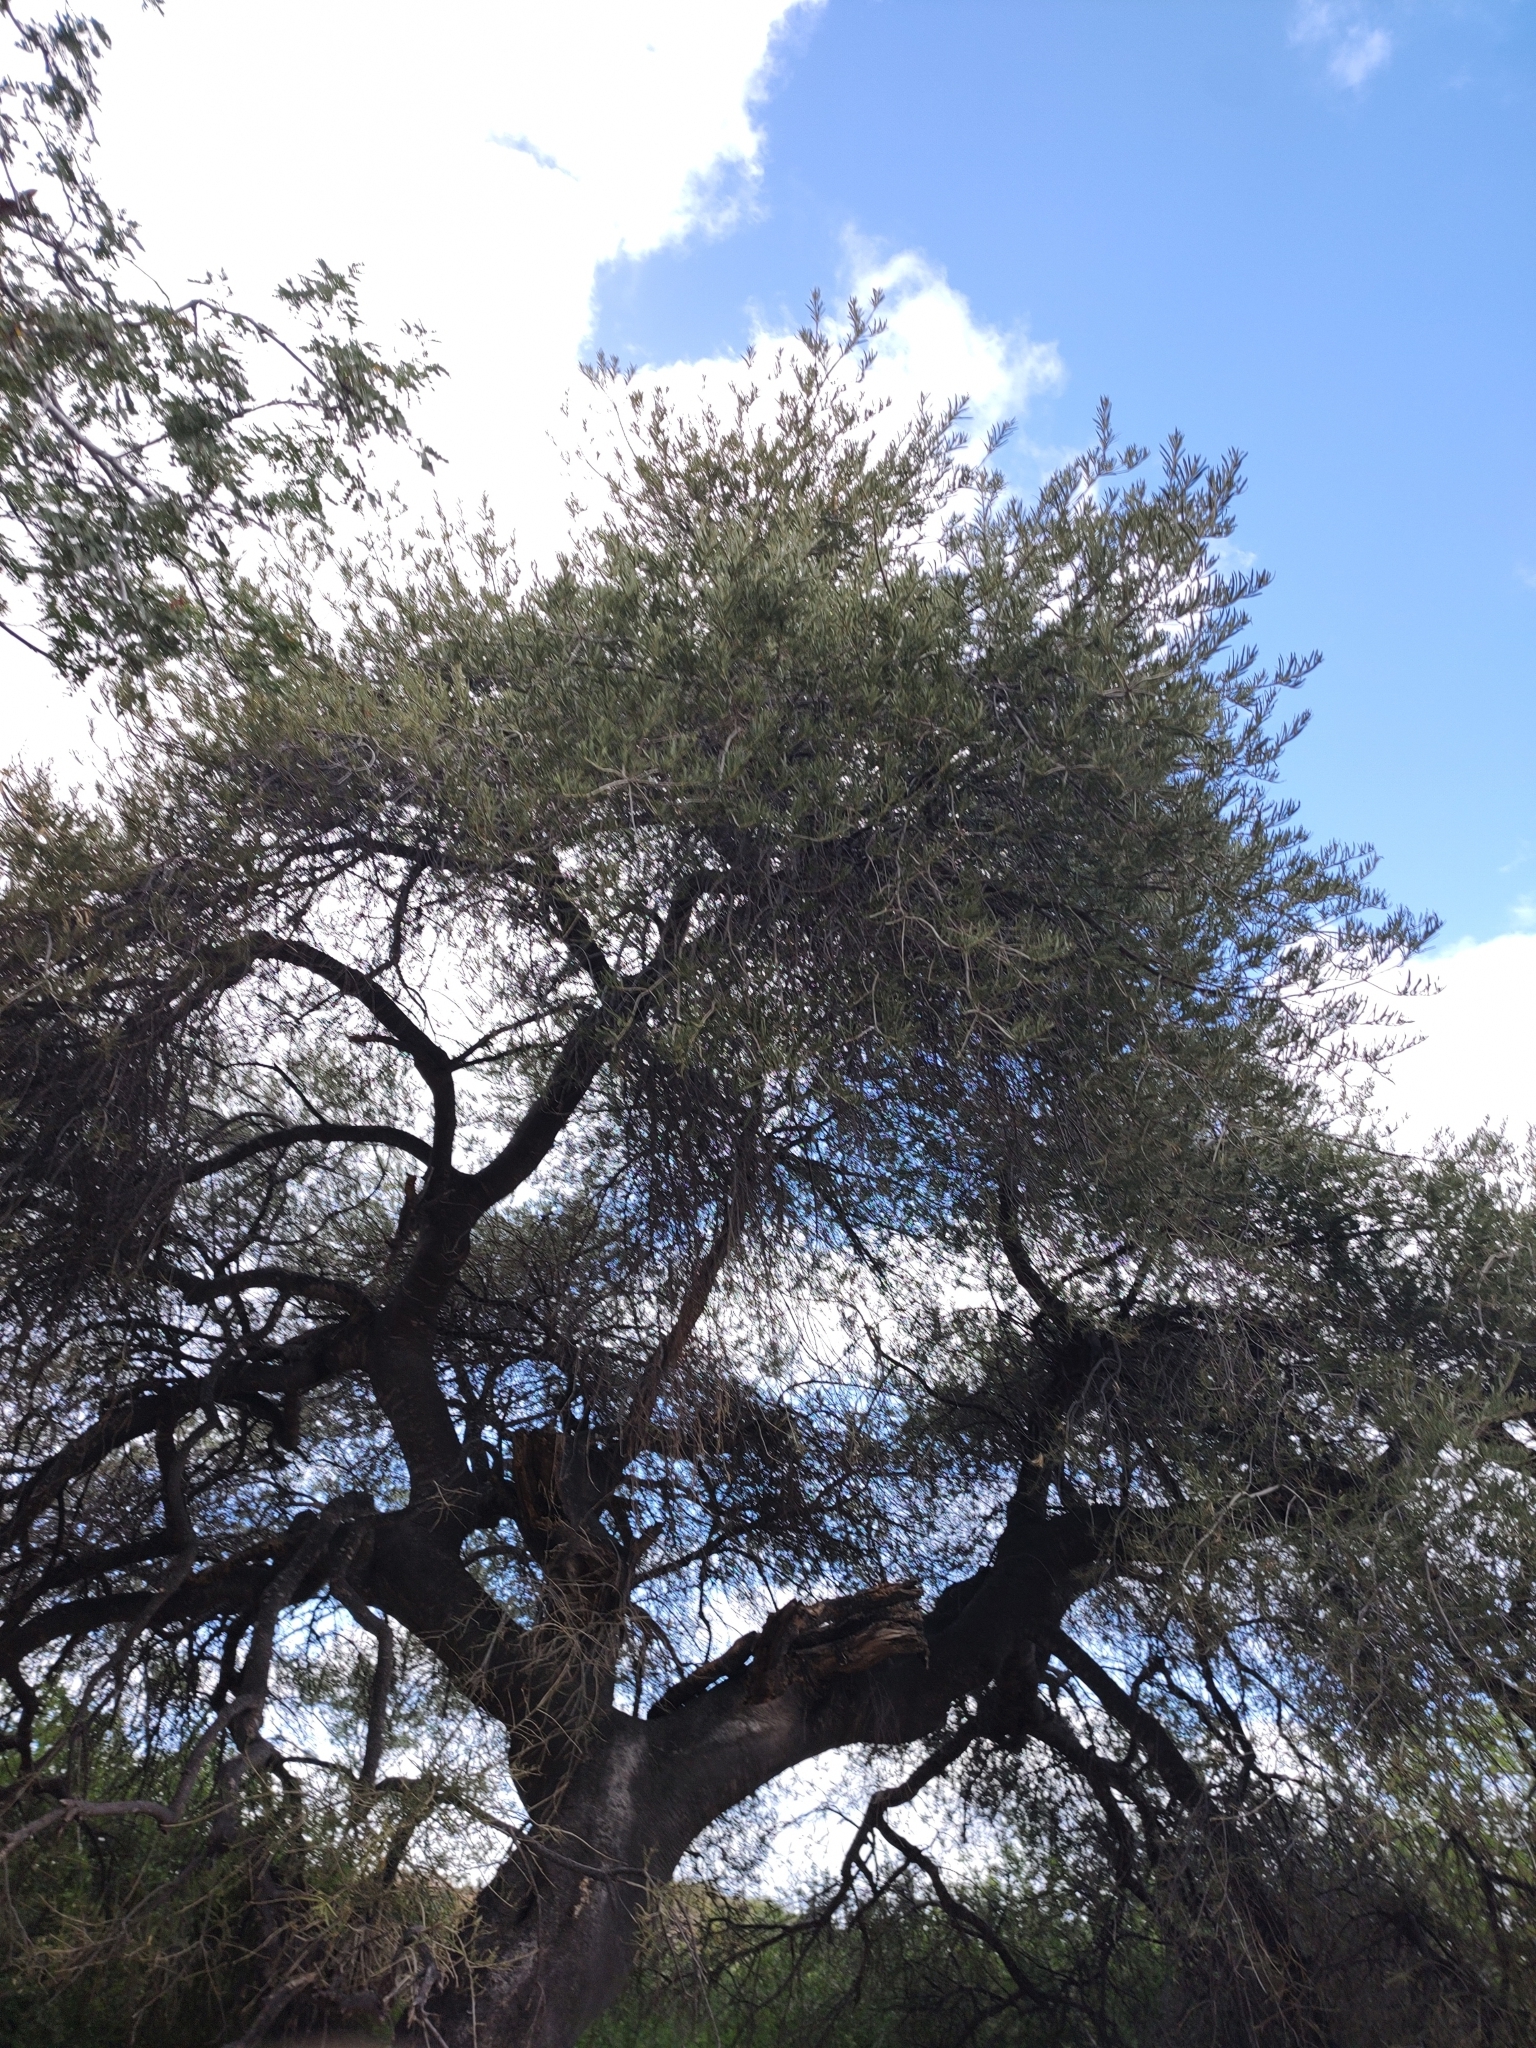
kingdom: Plantae
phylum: Tracheophyta
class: Magnoliopsida
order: Brassicales
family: Stixaceae
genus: Forchhammeria
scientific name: Forchhammeria watsonii
